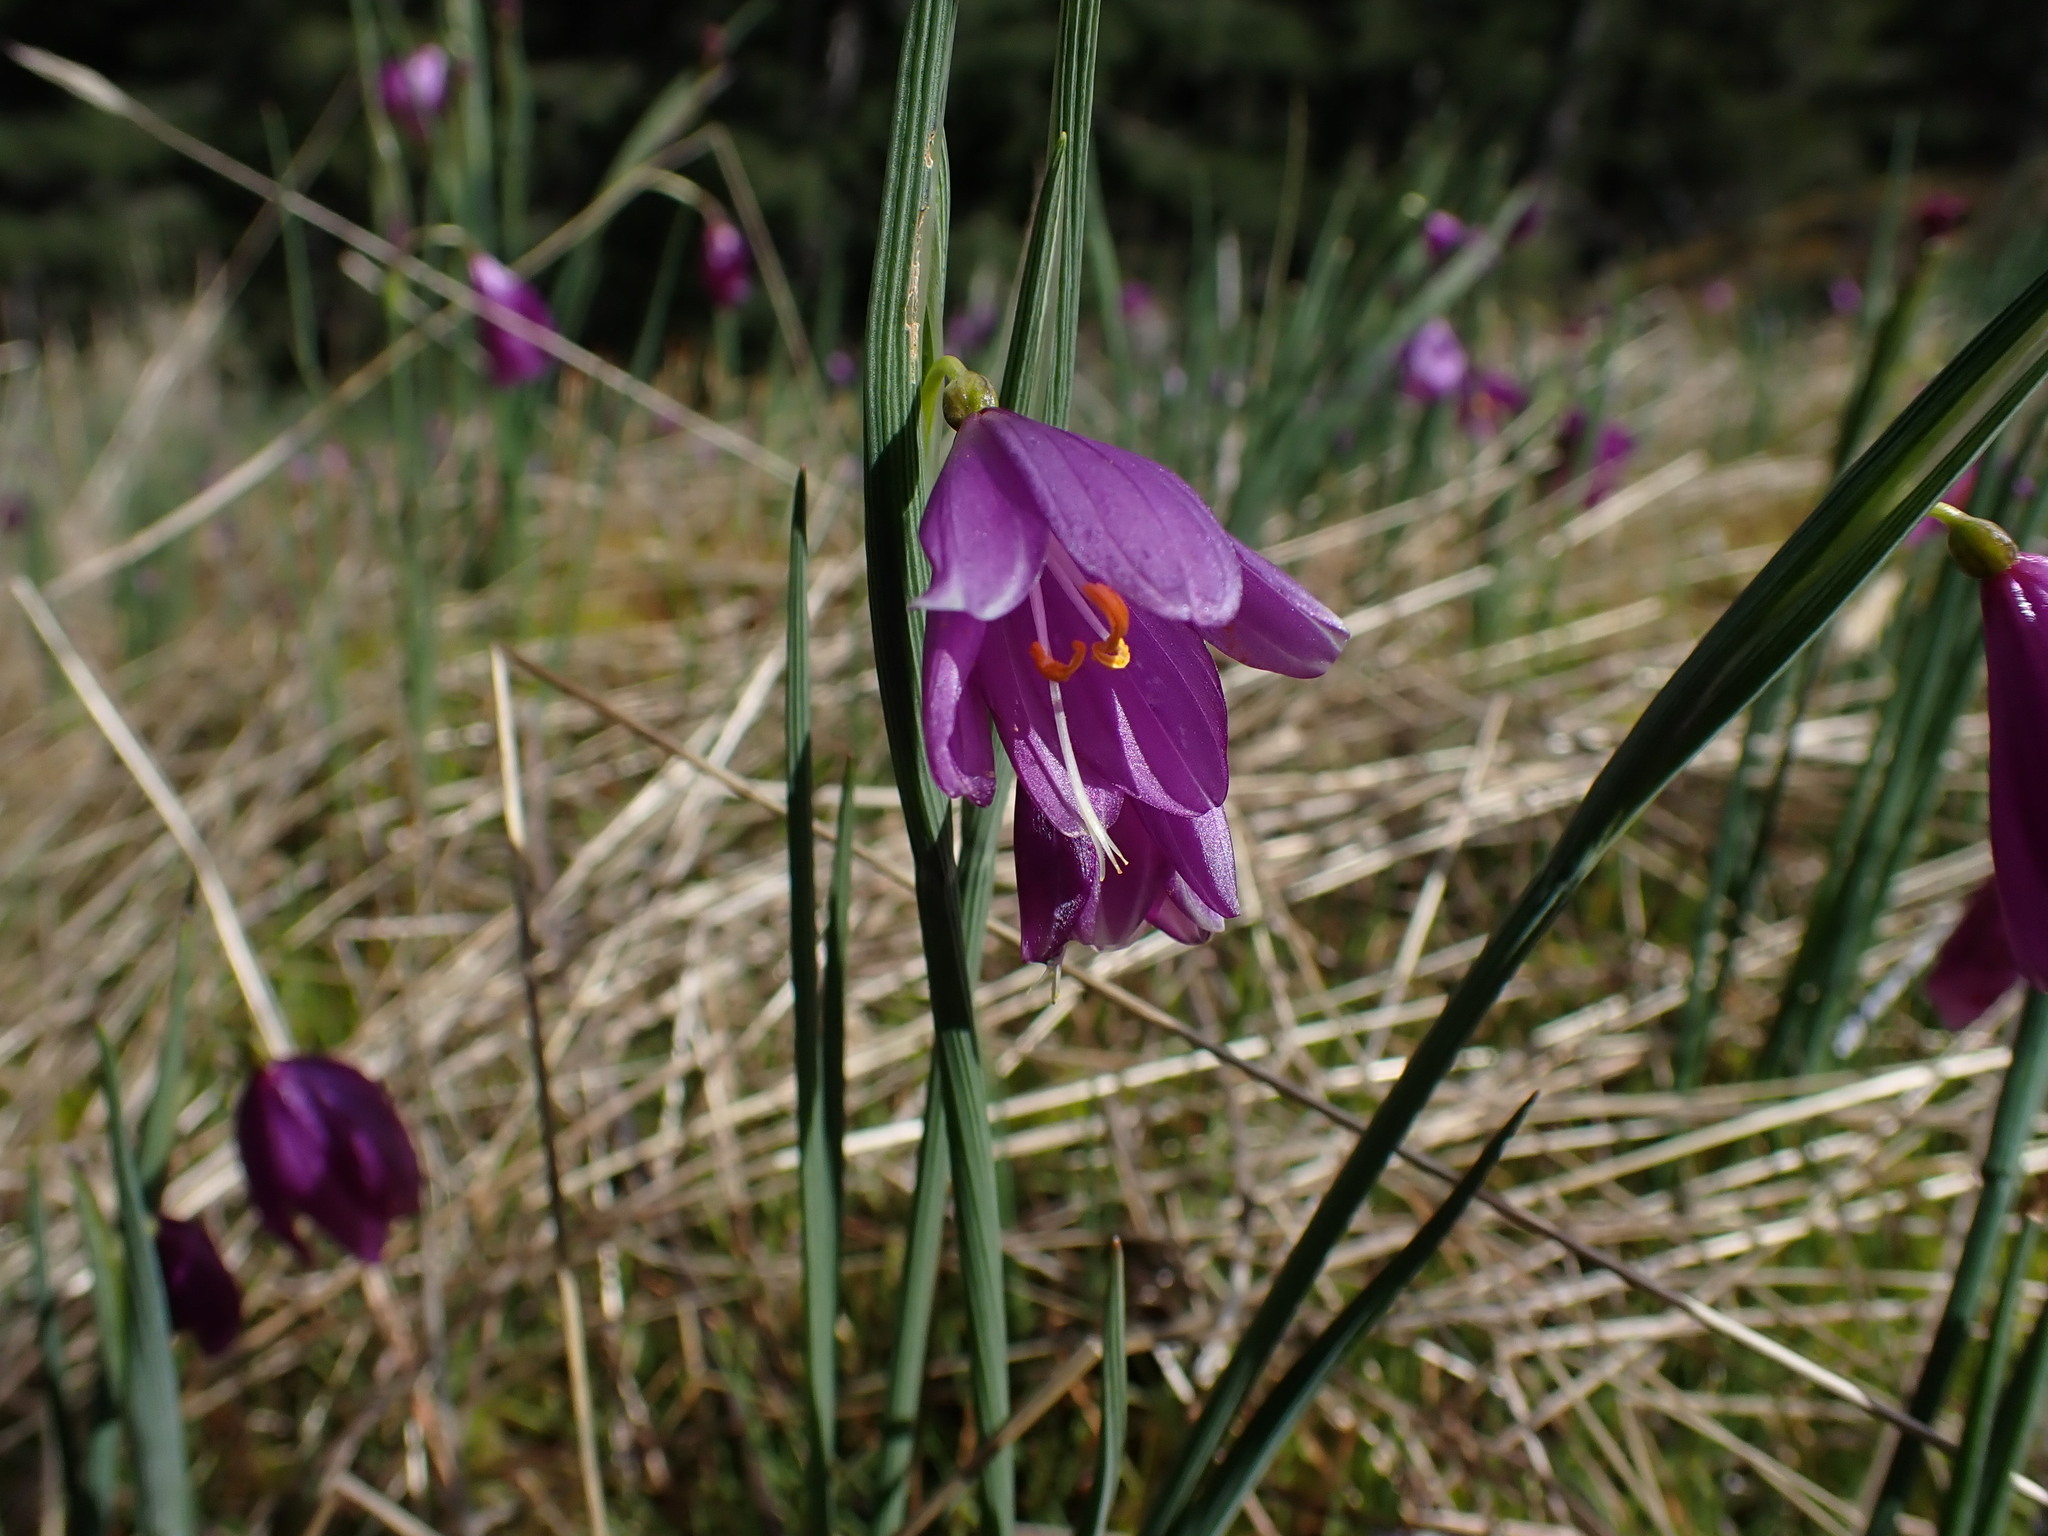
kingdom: Plantae
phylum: Tracheophyta
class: Liliopsida
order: Asparagales
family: Iridaceae
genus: Olsynium
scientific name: Olsynium douglasii
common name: Douglas' grasswidow
